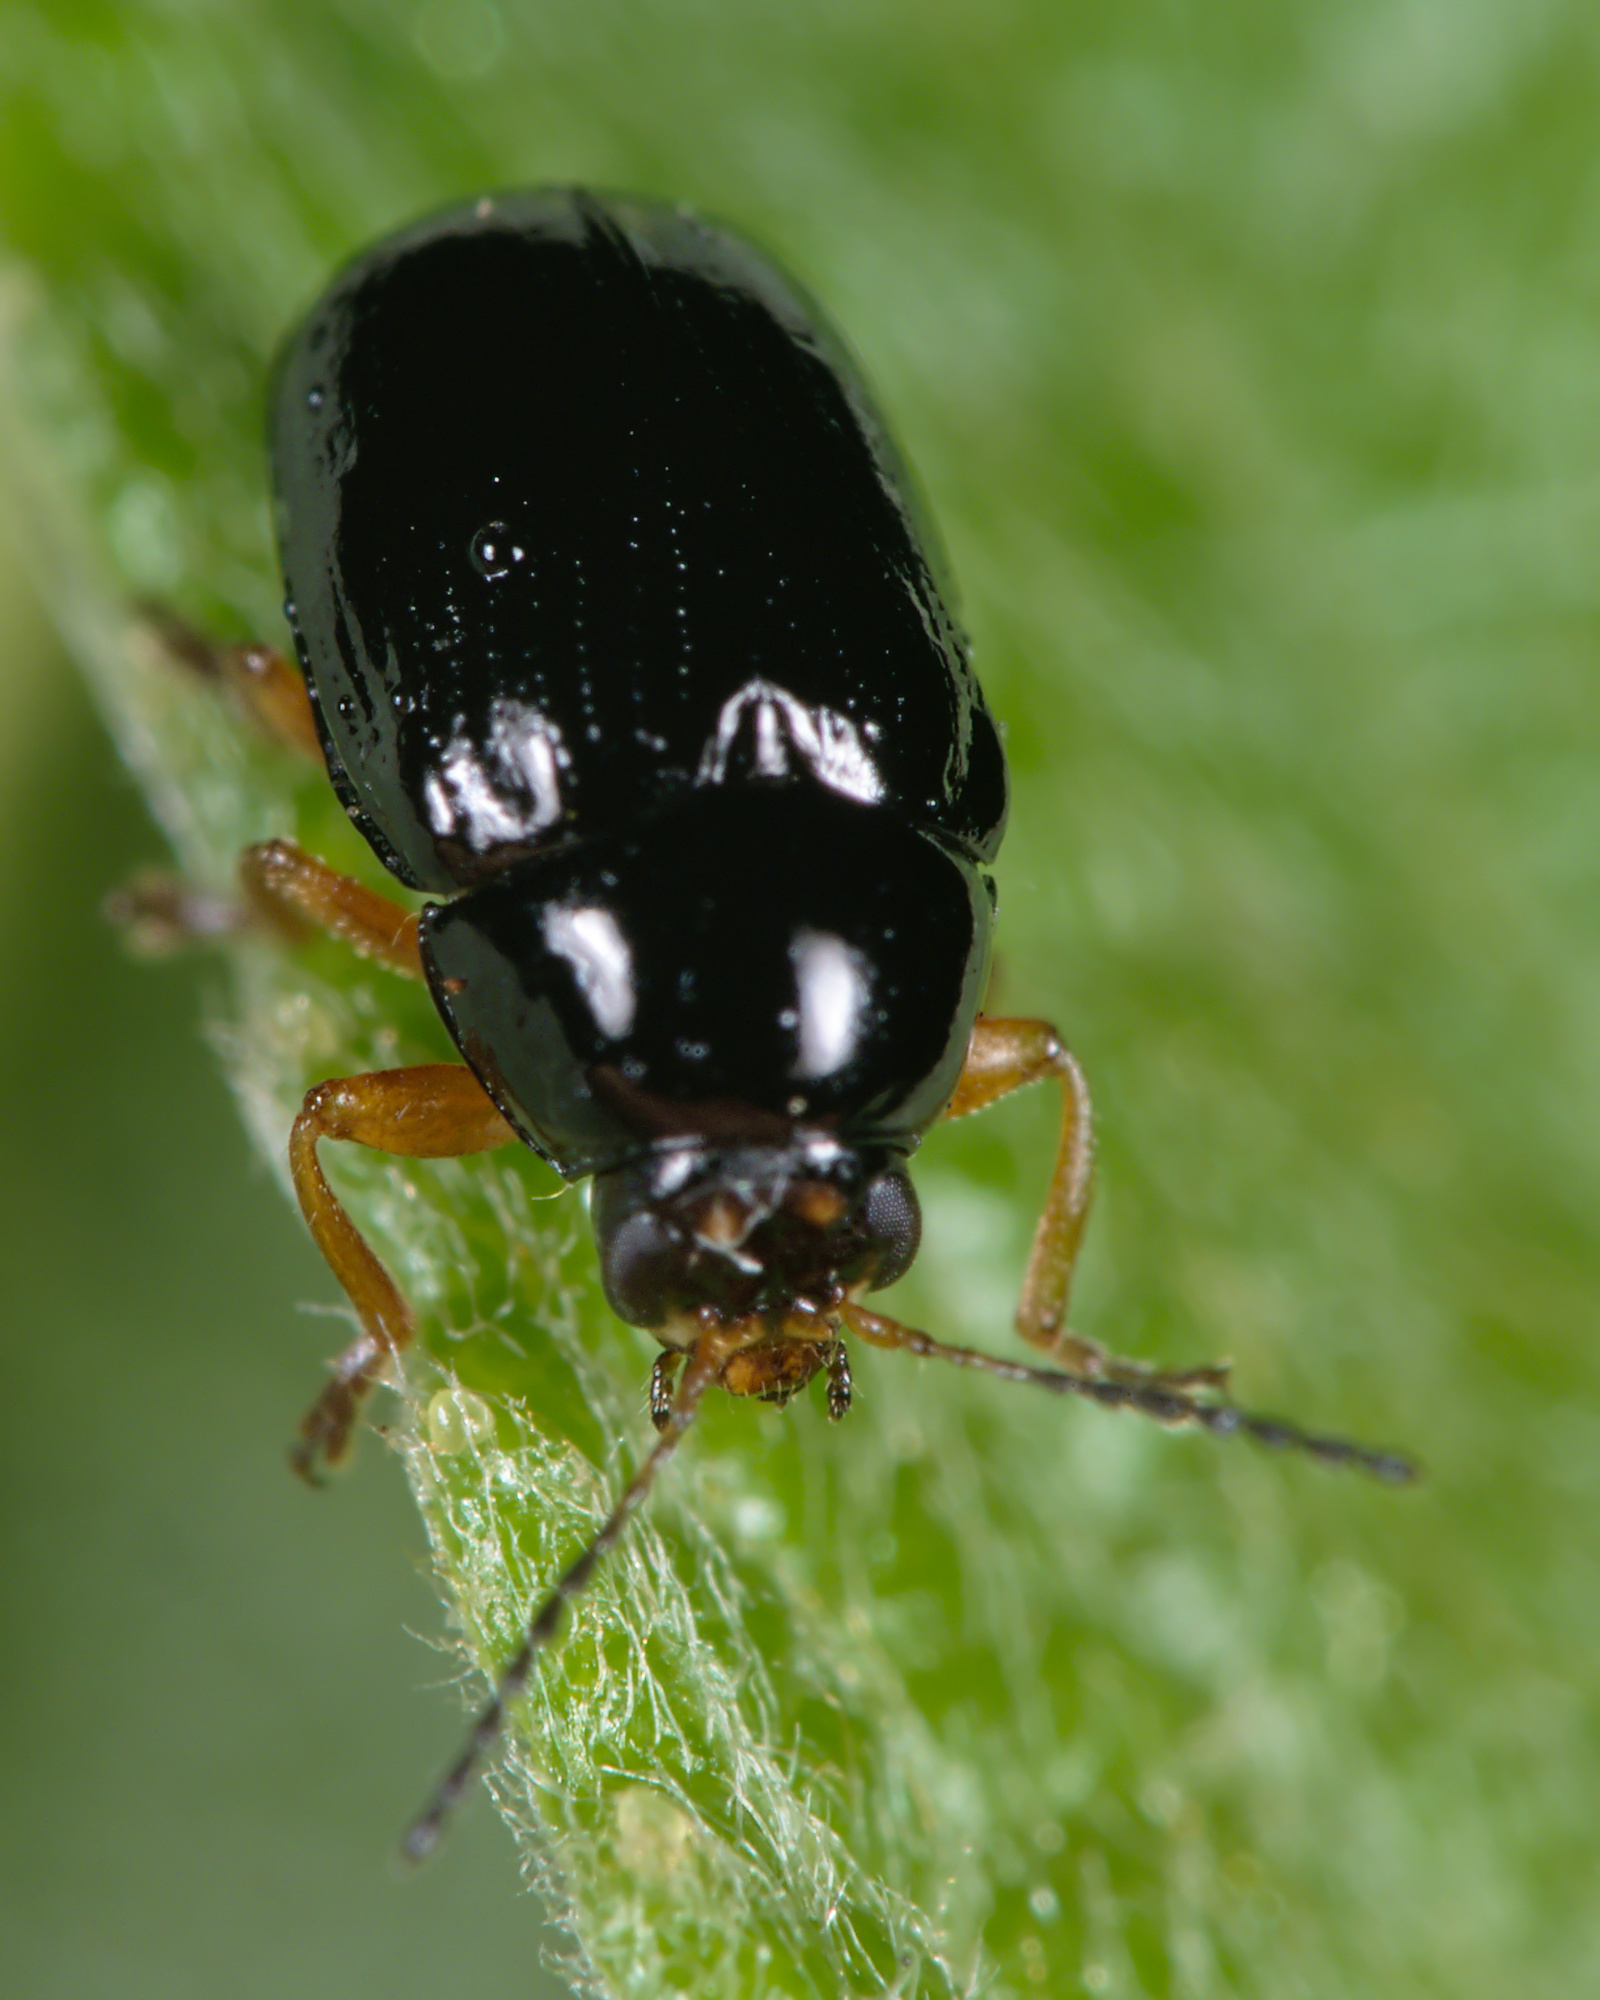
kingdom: Animalia
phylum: Arthropoda
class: Insecta
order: Coleoptera
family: Chrysomelidae
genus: Cryptocephalus
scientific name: Cryptocephalus ocellatus
